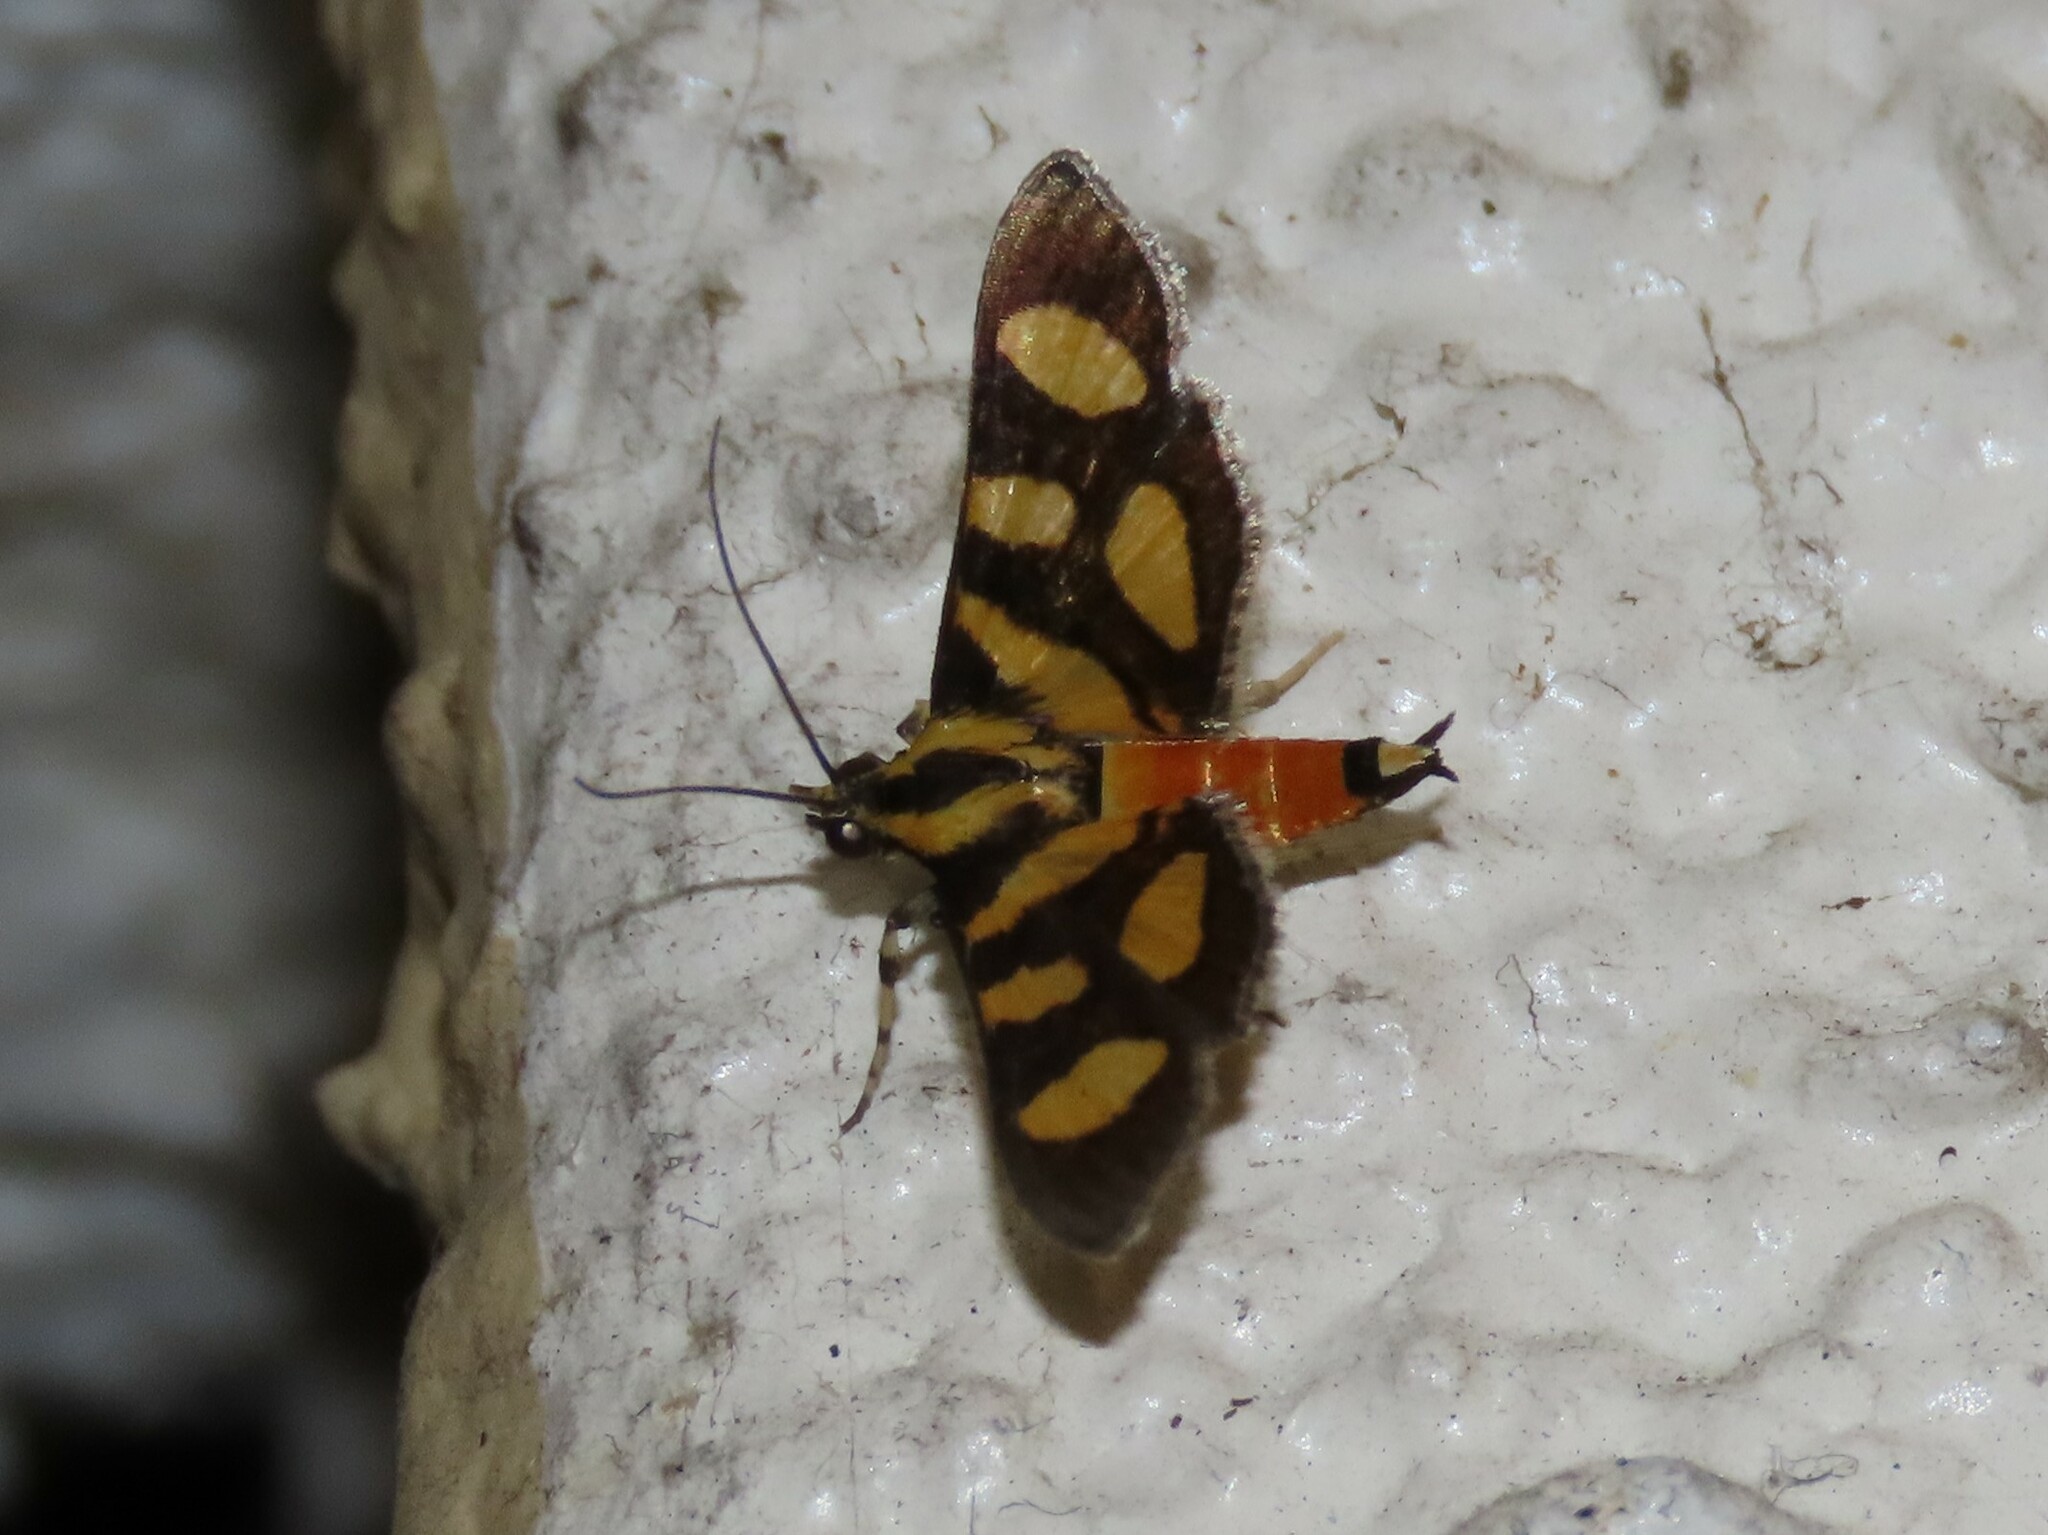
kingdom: Animalia
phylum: Arthropoda
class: Insecta
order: Lepidoptera
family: Crambidae
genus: Syngamia
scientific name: Syngamia florella
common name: Orange-spotted flower moth
